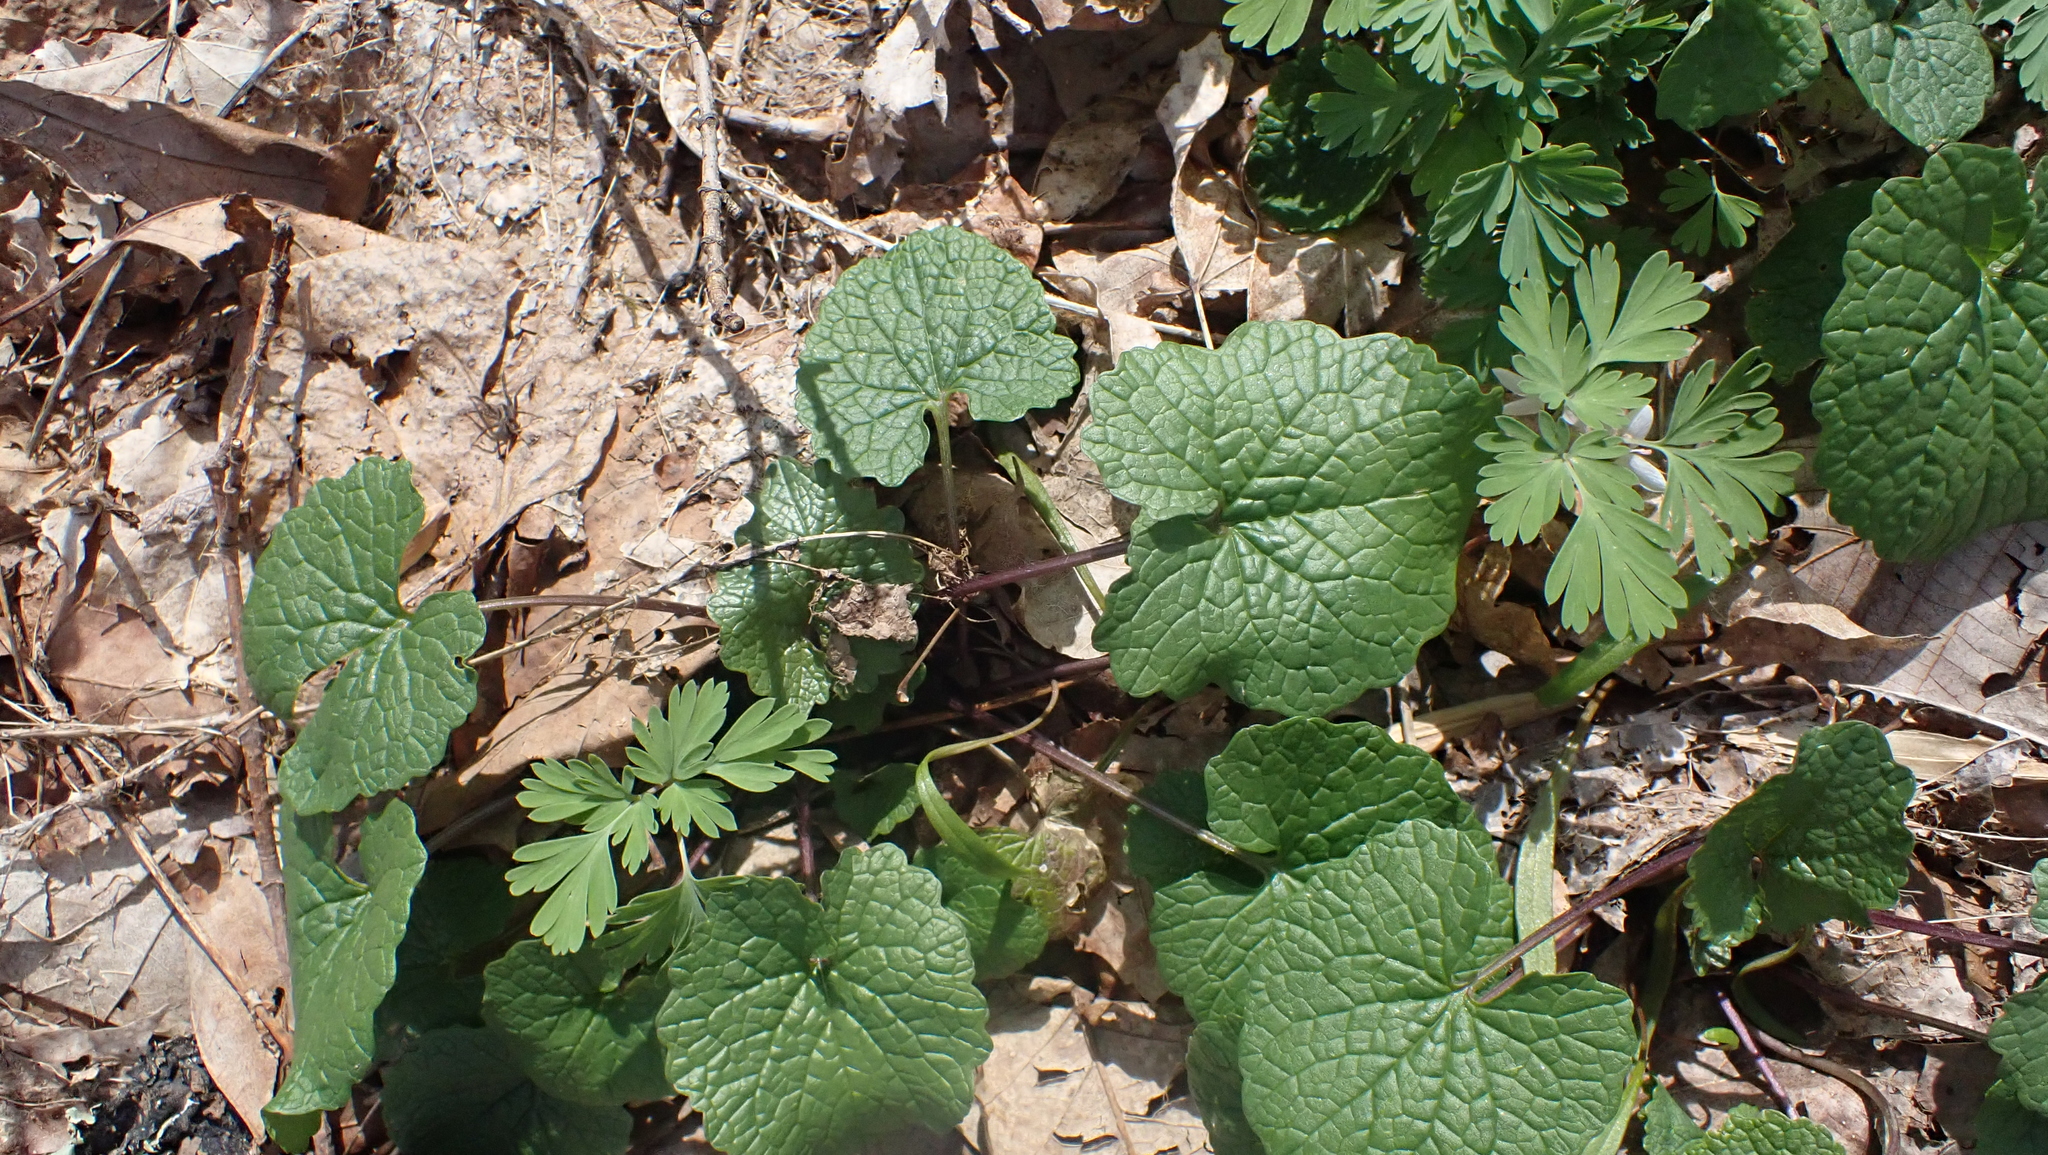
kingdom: Plantae
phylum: Tracheophyta
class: Magnoliopsida
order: Brassicales
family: Brassicaceae
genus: Alliaria
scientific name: Alliaria petiolata
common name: Garlic mustard
